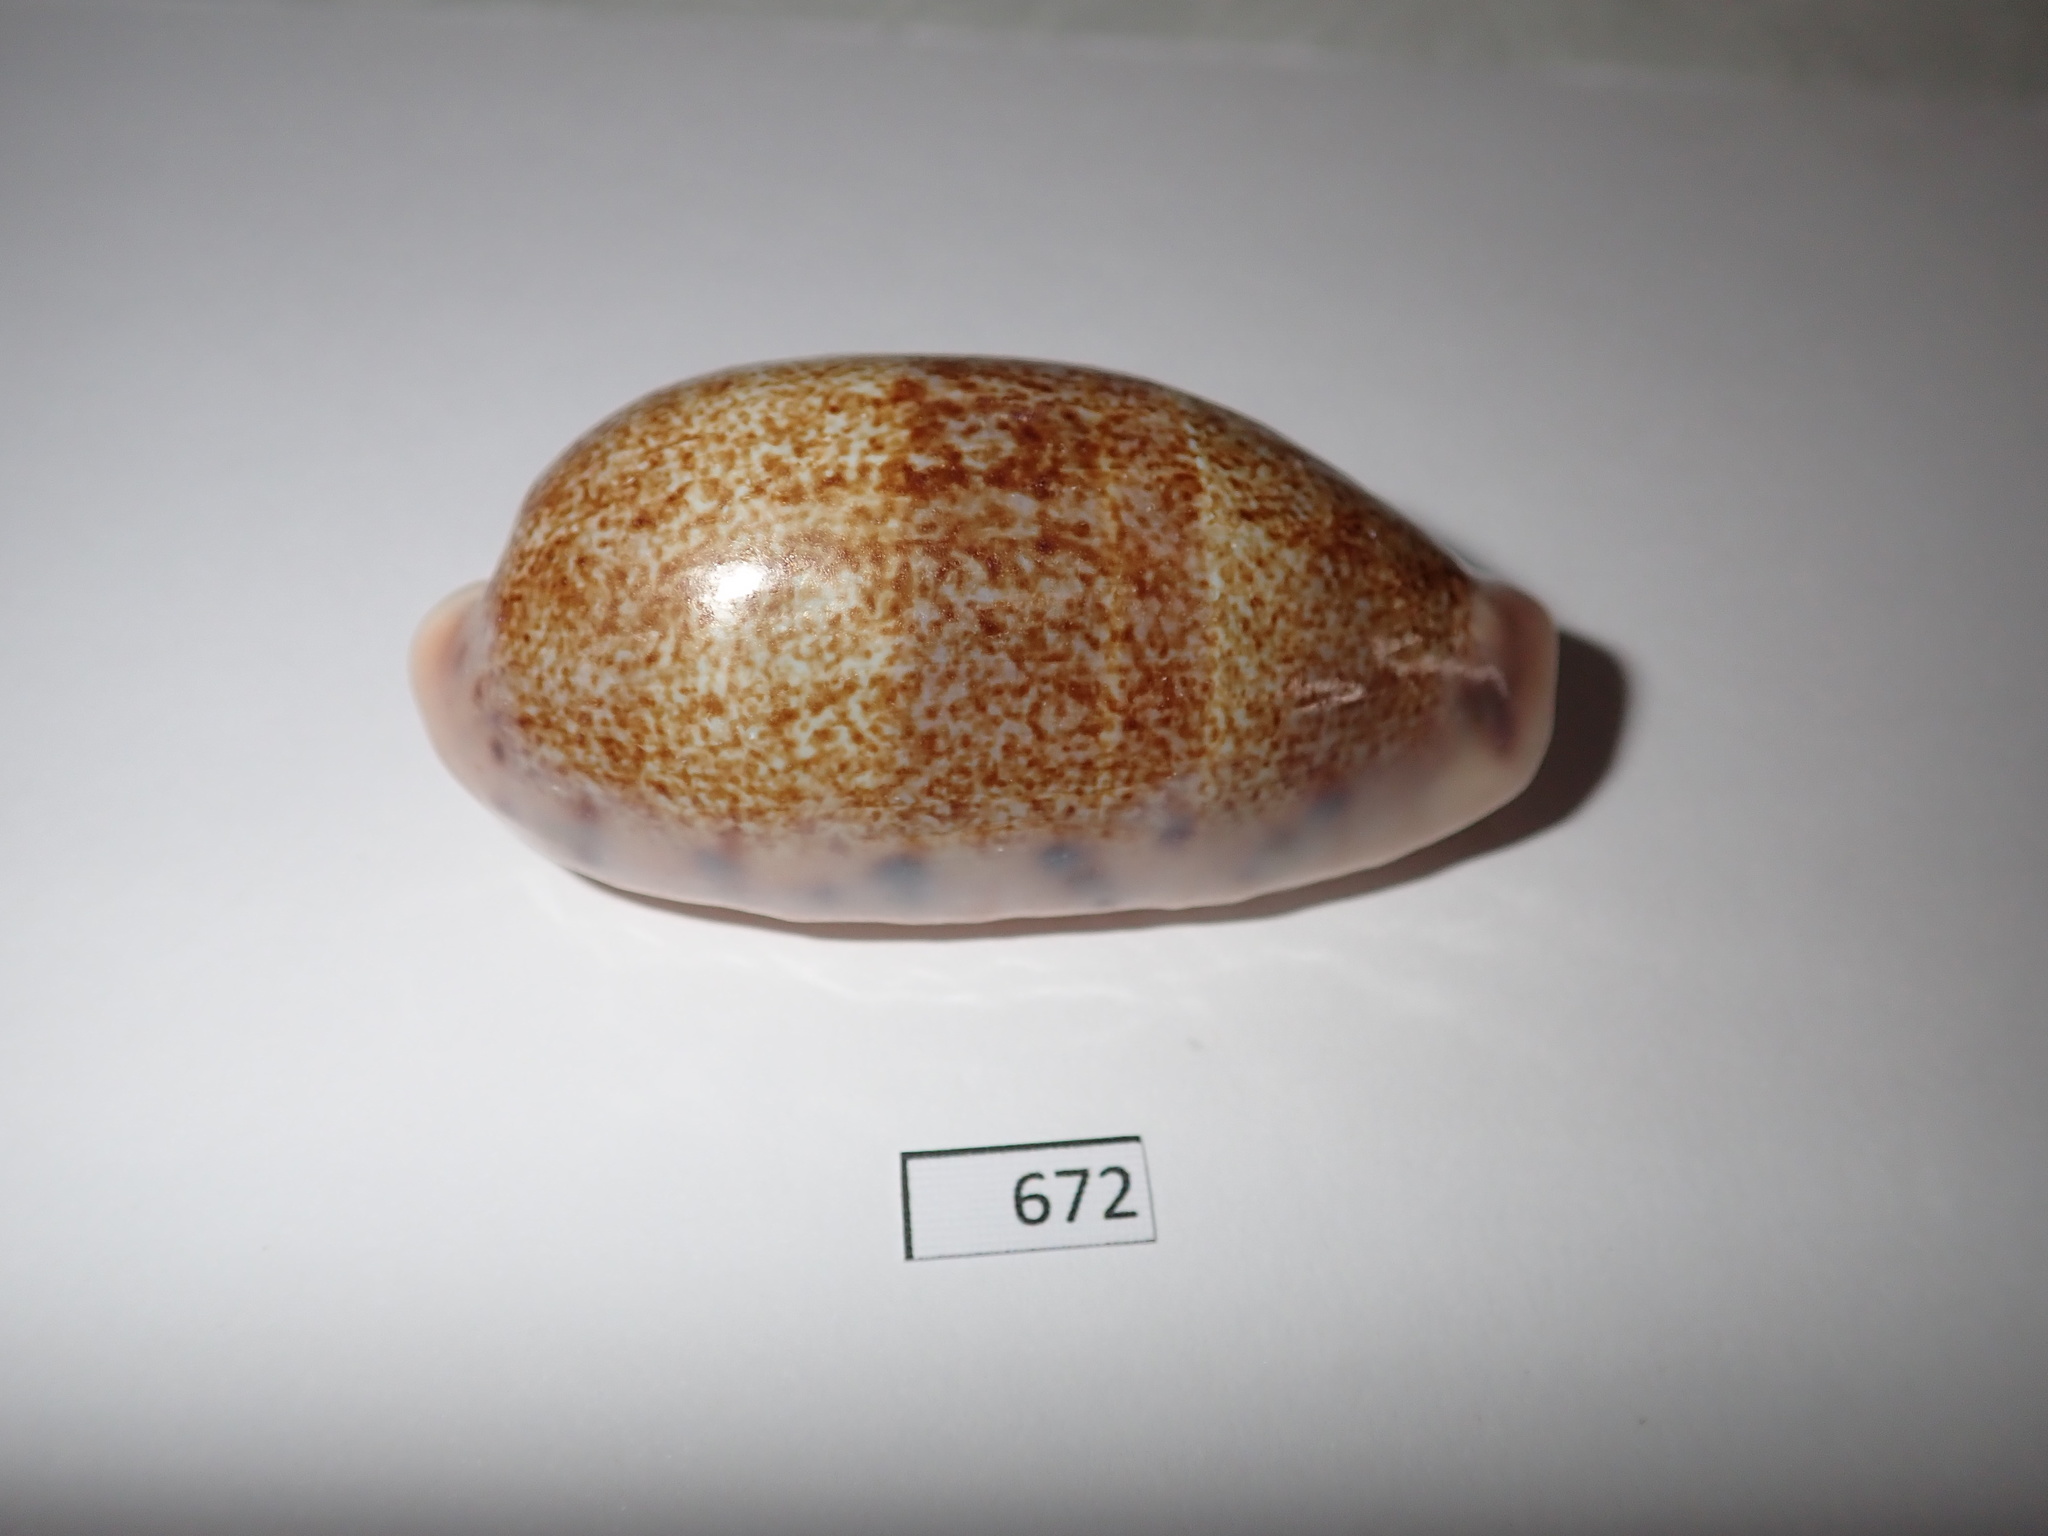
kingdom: Animalia
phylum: Mollusca
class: Gastropoda
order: Littorinimorpha
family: Cypraeidae
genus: Erronea
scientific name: Erronea caurica
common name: Thick-edged cowry
